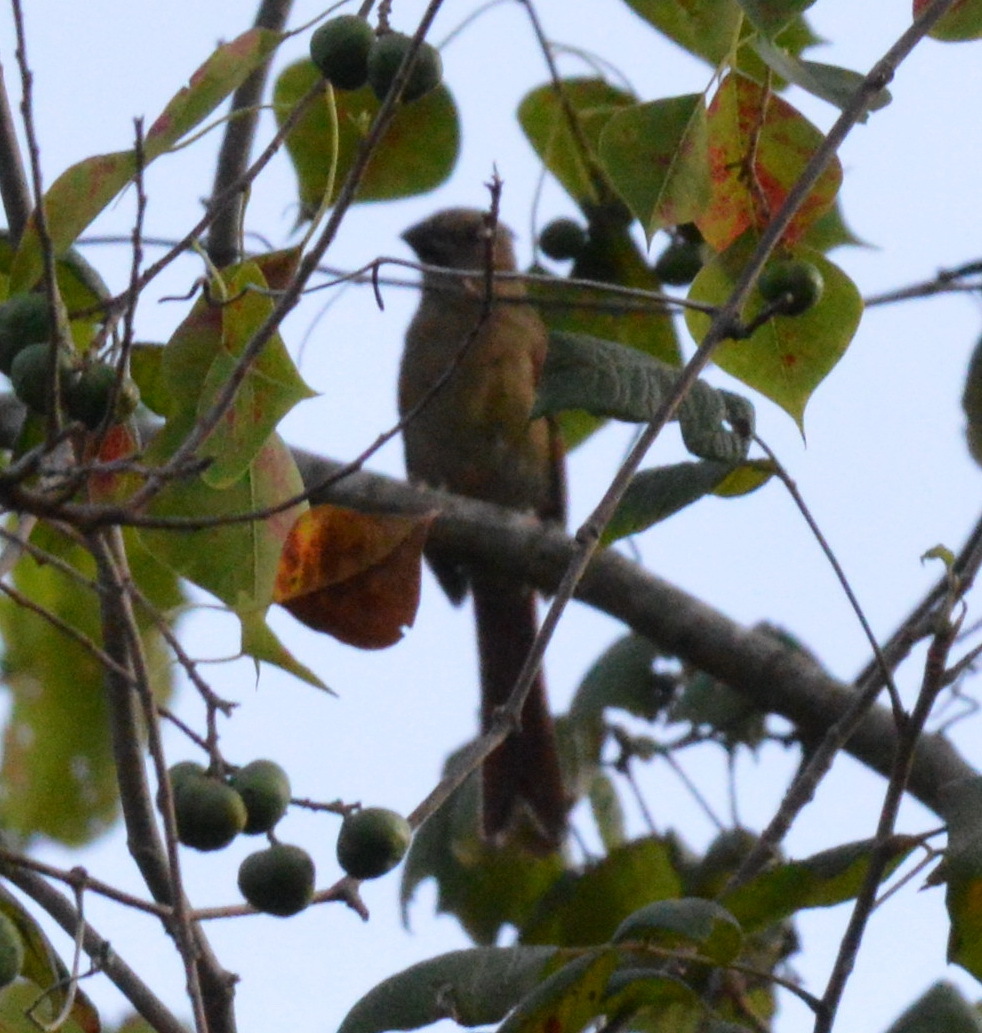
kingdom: Animalia
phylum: Chordata
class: Aves
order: Passeriformes
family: Cardinalidae
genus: Cardinalis
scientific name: Cardinalis cardinalis
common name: Northern cardinal
